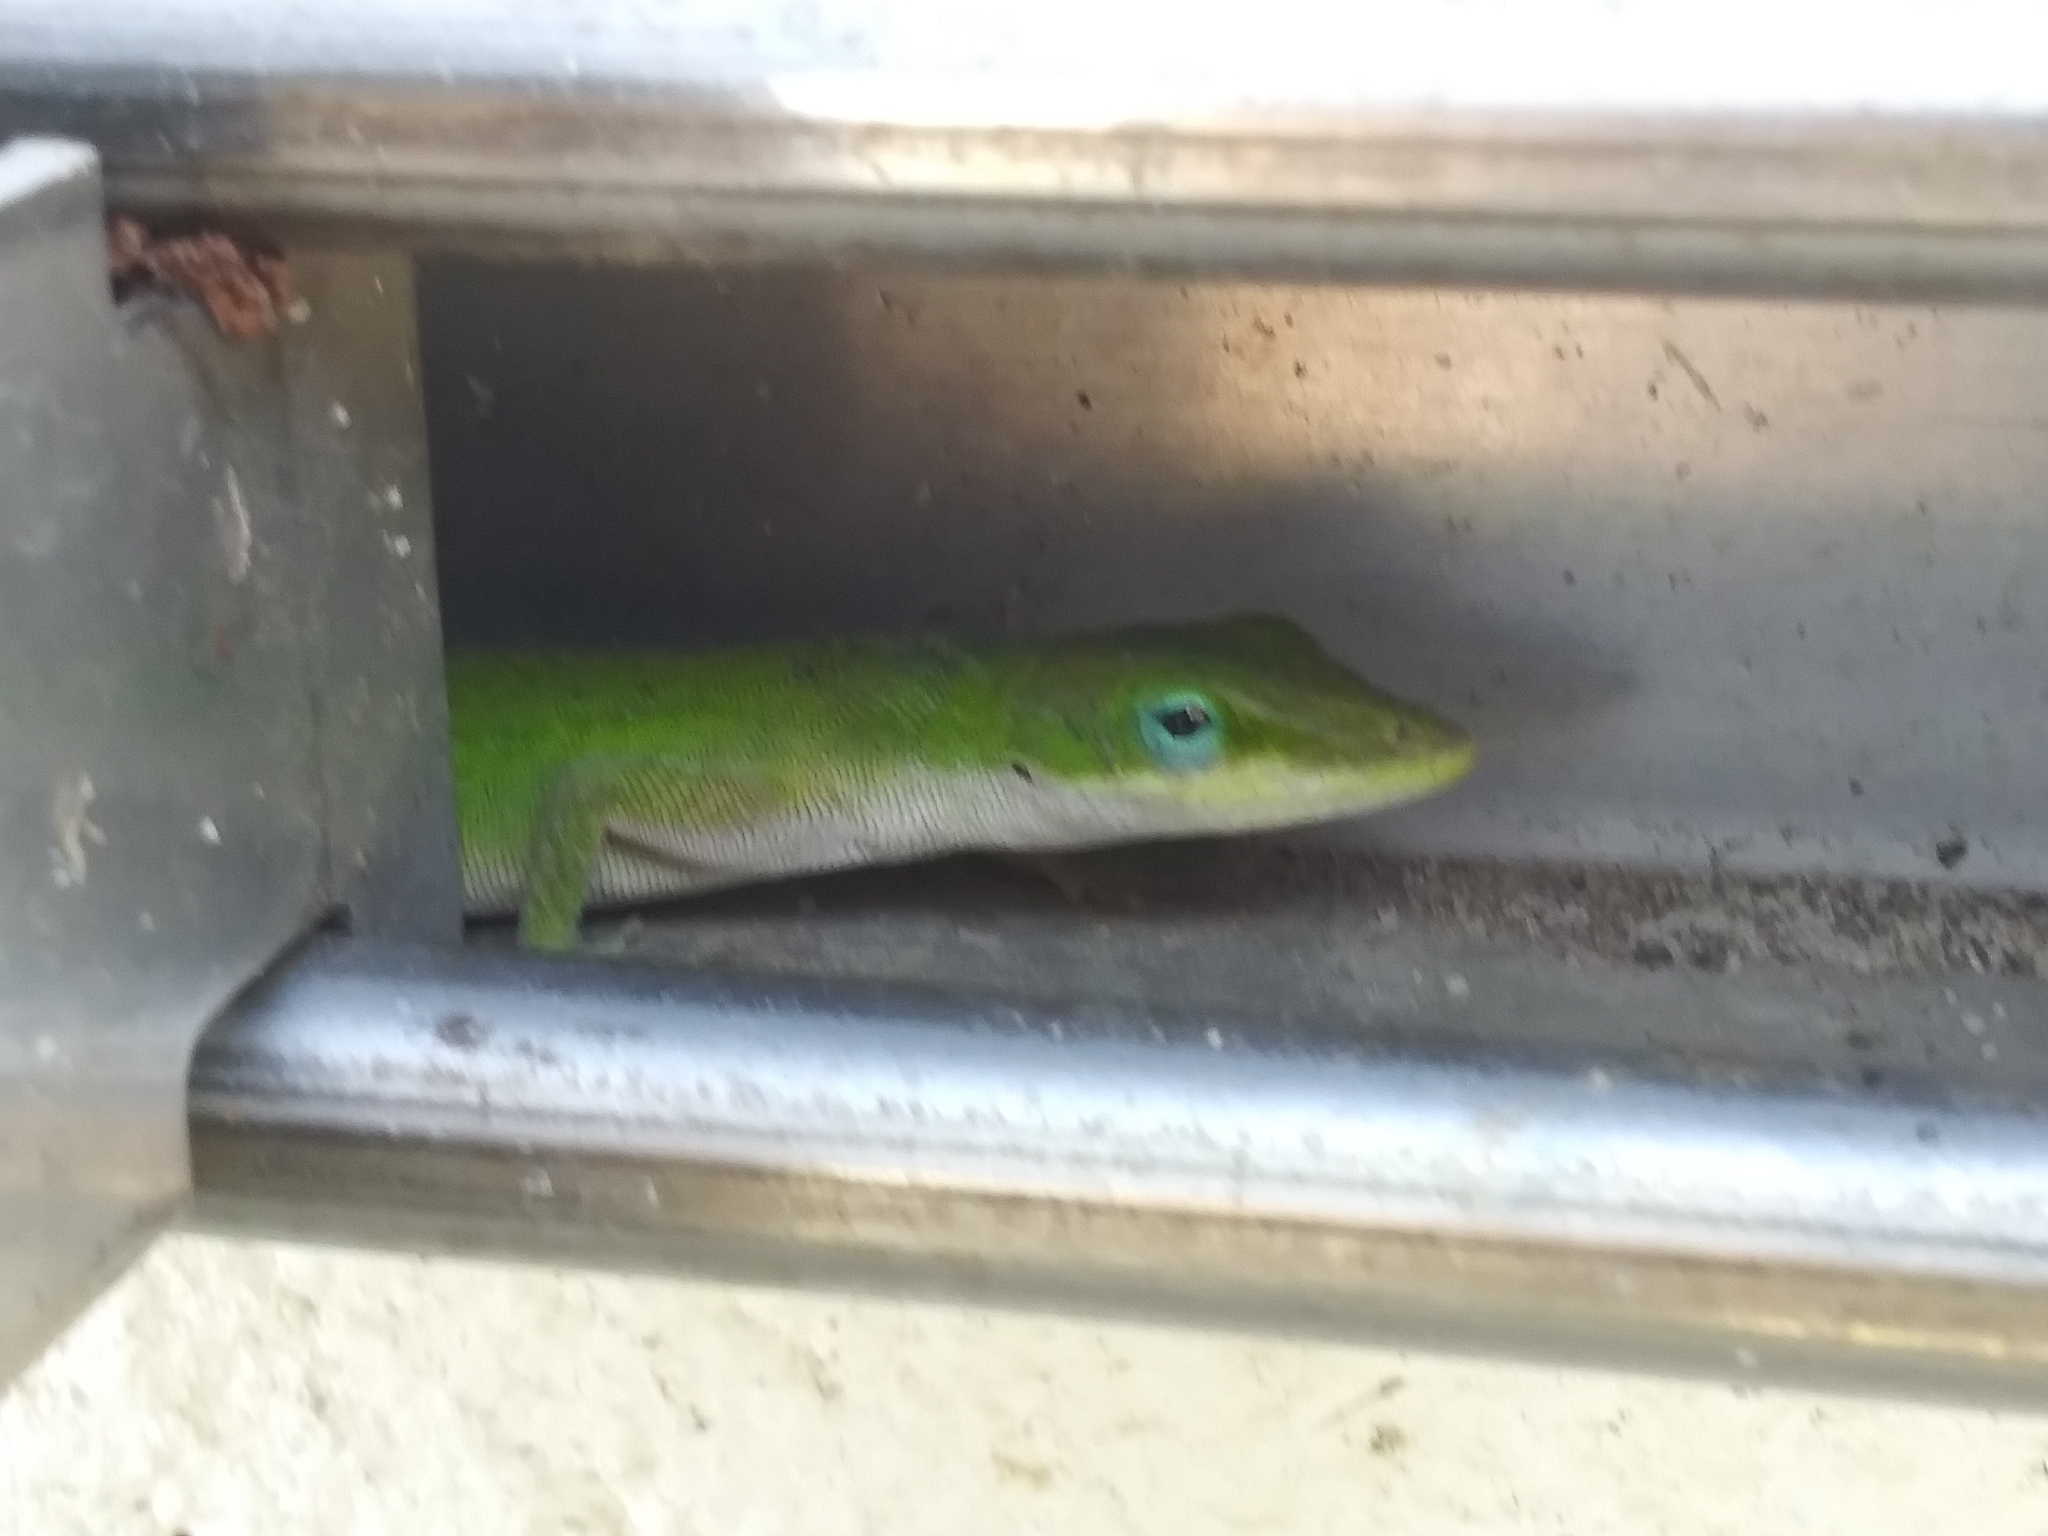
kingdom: Animalia
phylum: Chordata
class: Squamata
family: Dactyloidae
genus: Anolis
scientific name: Anolis carolinensis
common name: Green anole
